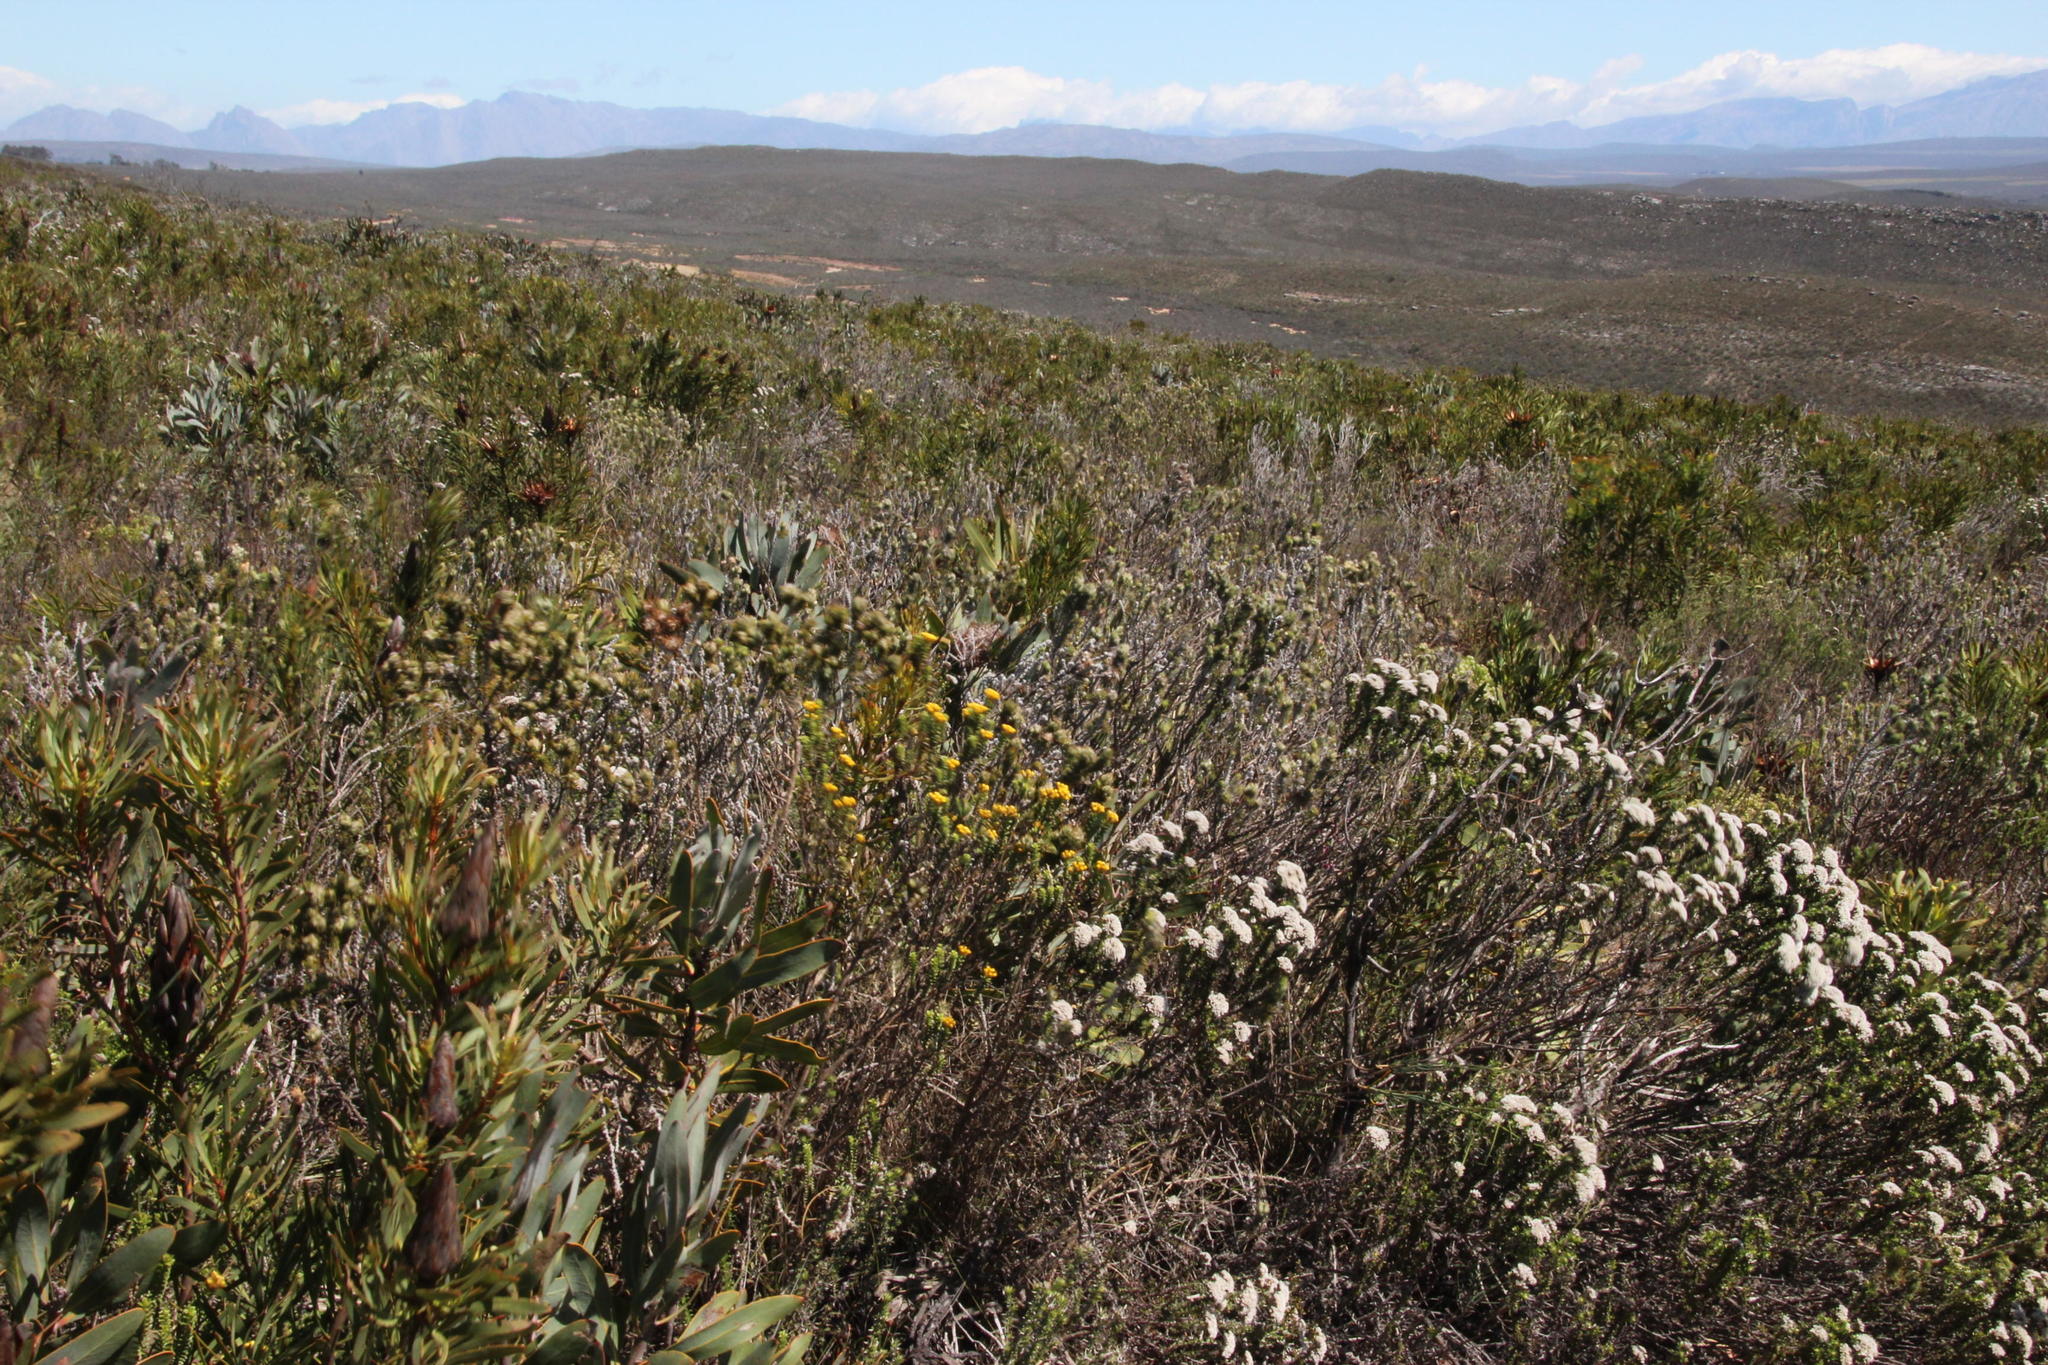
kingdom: Plantae
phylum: Tracheophyta
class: Magnoliopsida
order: Asterales
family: Asteraceae
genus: Oedera
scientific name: Oedera squarrosa
